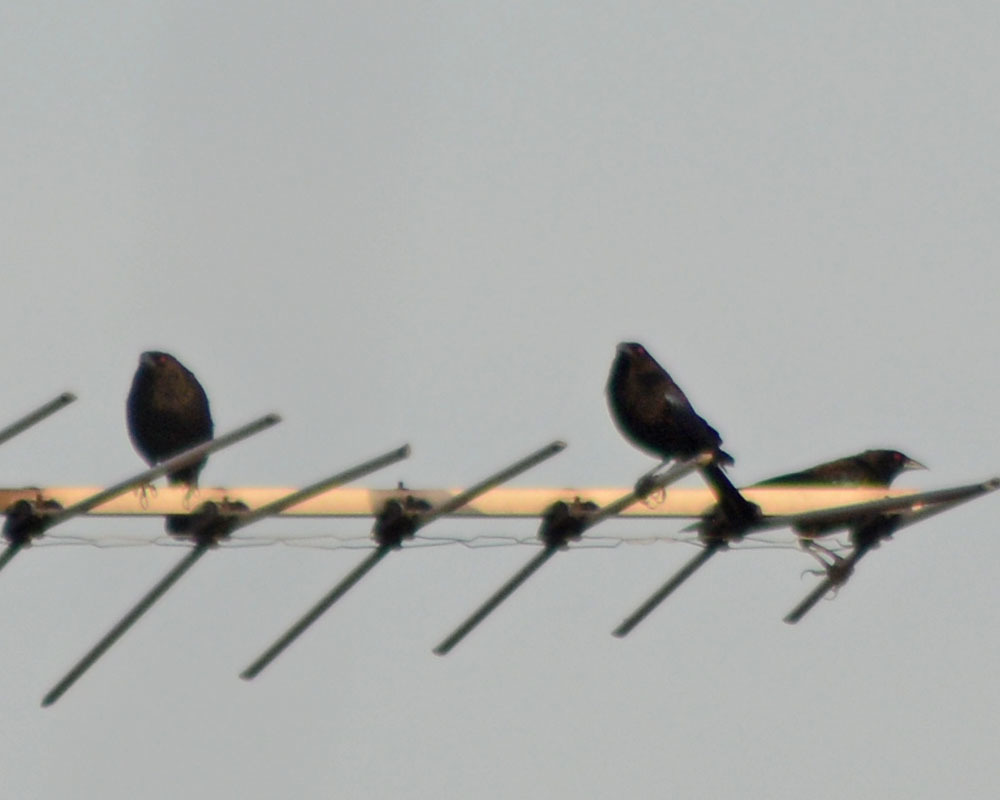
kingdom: Animalia
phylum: Chordata
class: Aves
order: Passeriformes
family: Icteridae
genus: Molothrus
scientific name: Molothrus aeneus
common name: Bronzed cowbird
